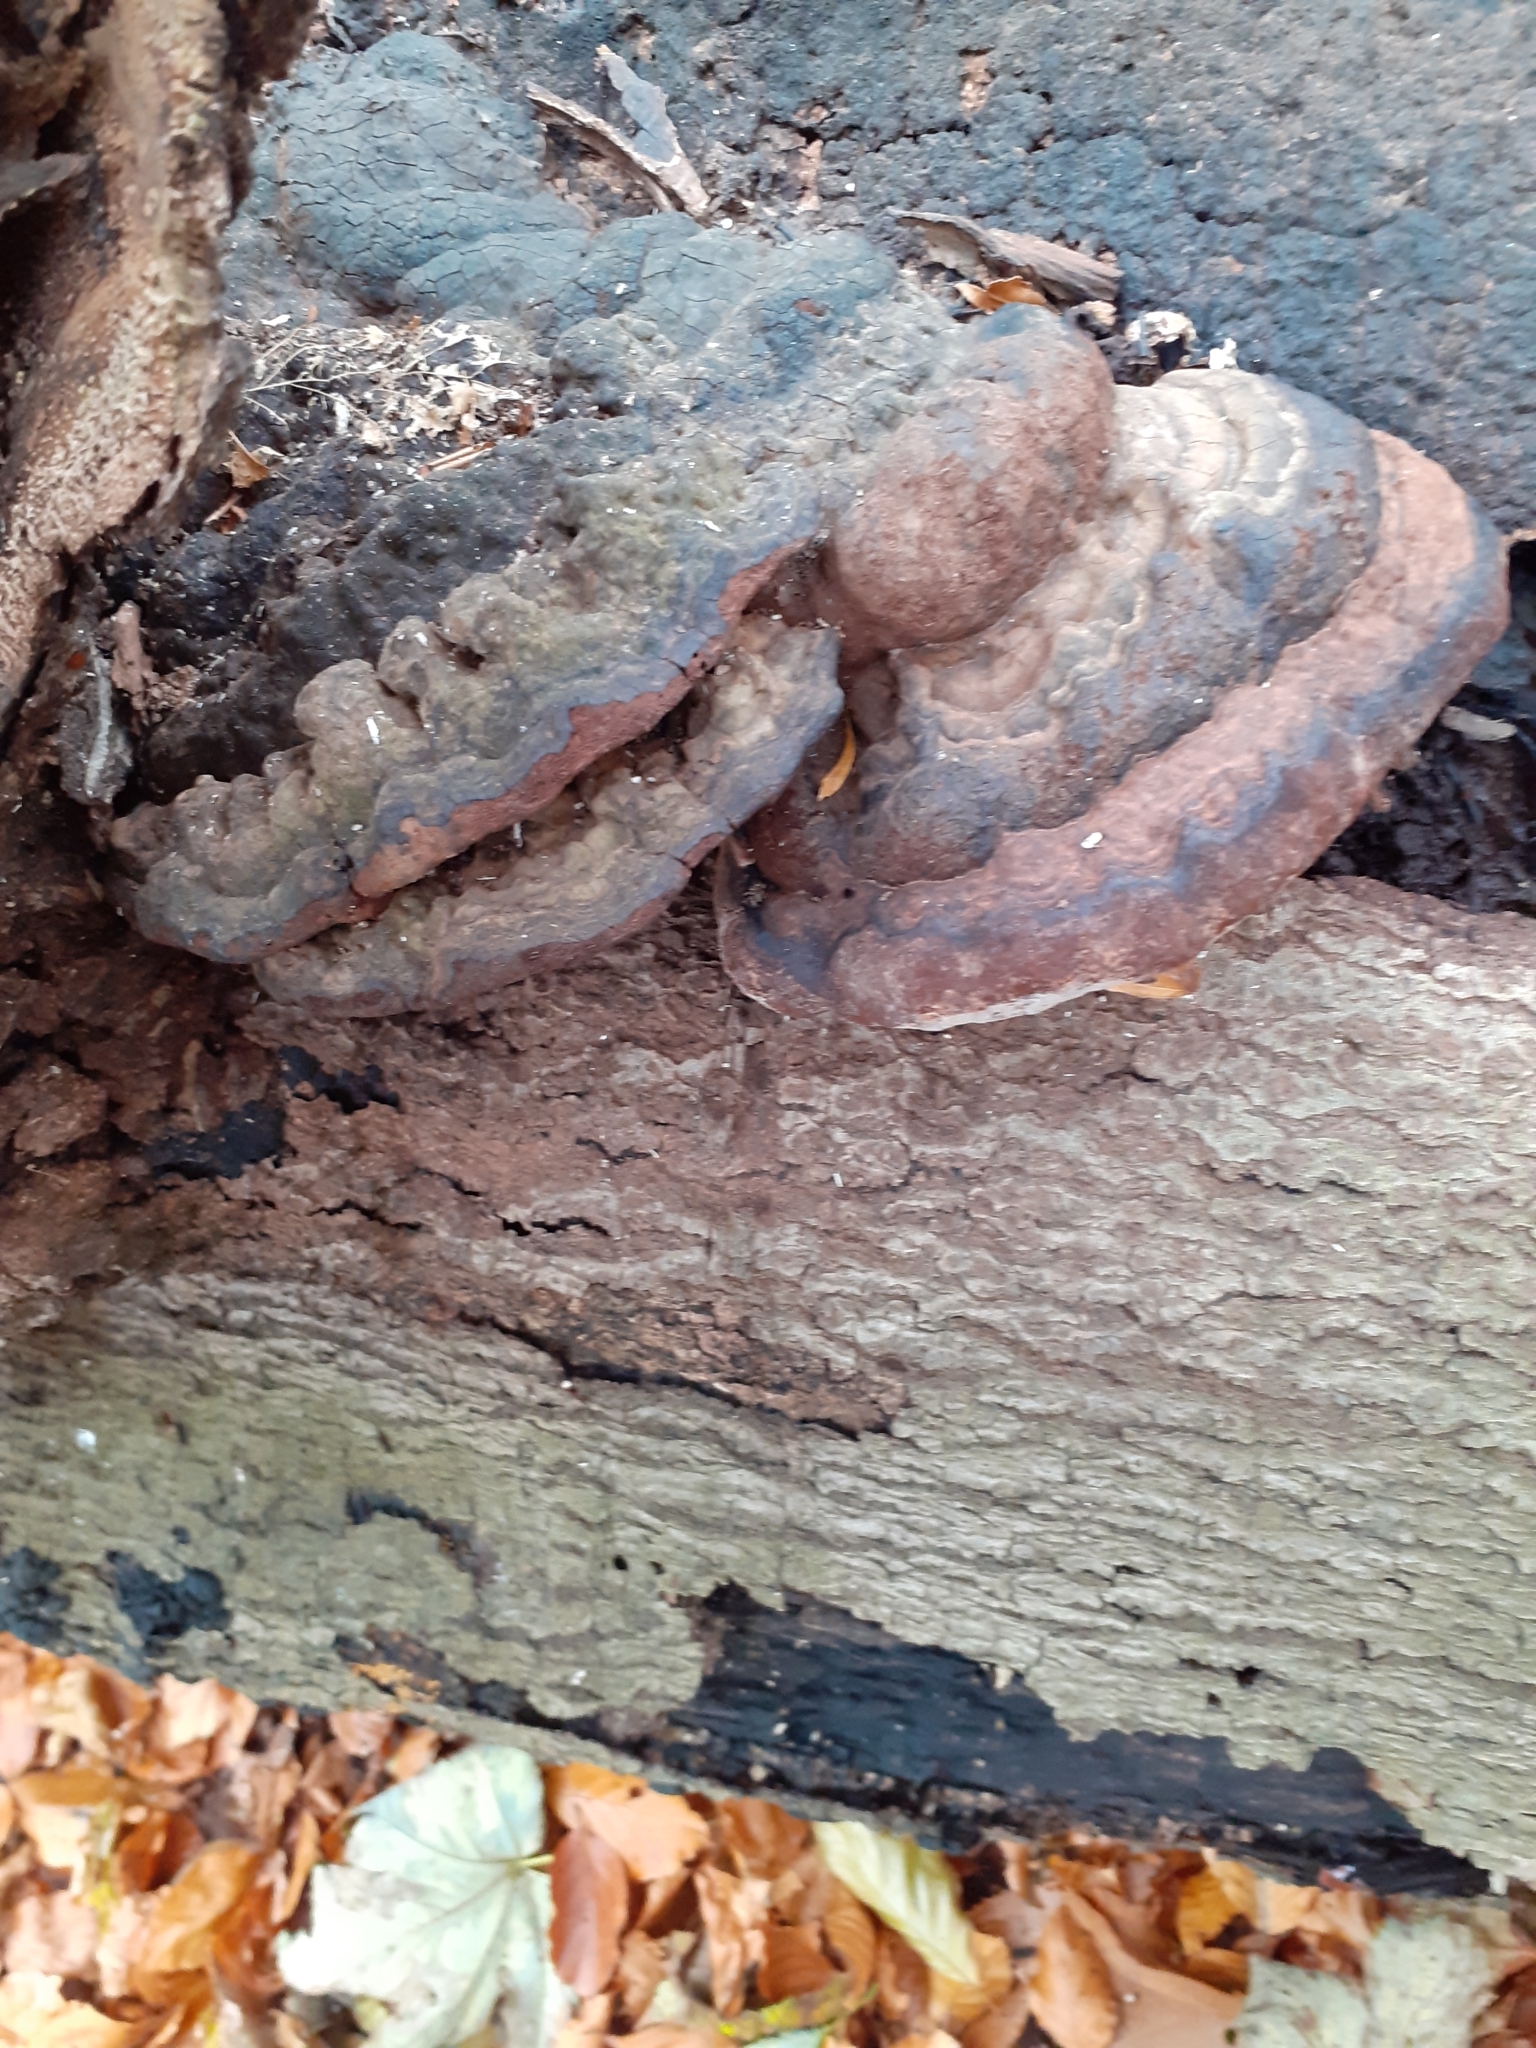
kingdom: Fungi
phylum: Basidiomycota
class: Agaricomycetes
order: Polyporales
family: Fomitopsidaceae
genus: Fomitopsis
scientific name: Fomitopsis pinicola
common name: Red-belted bracket
